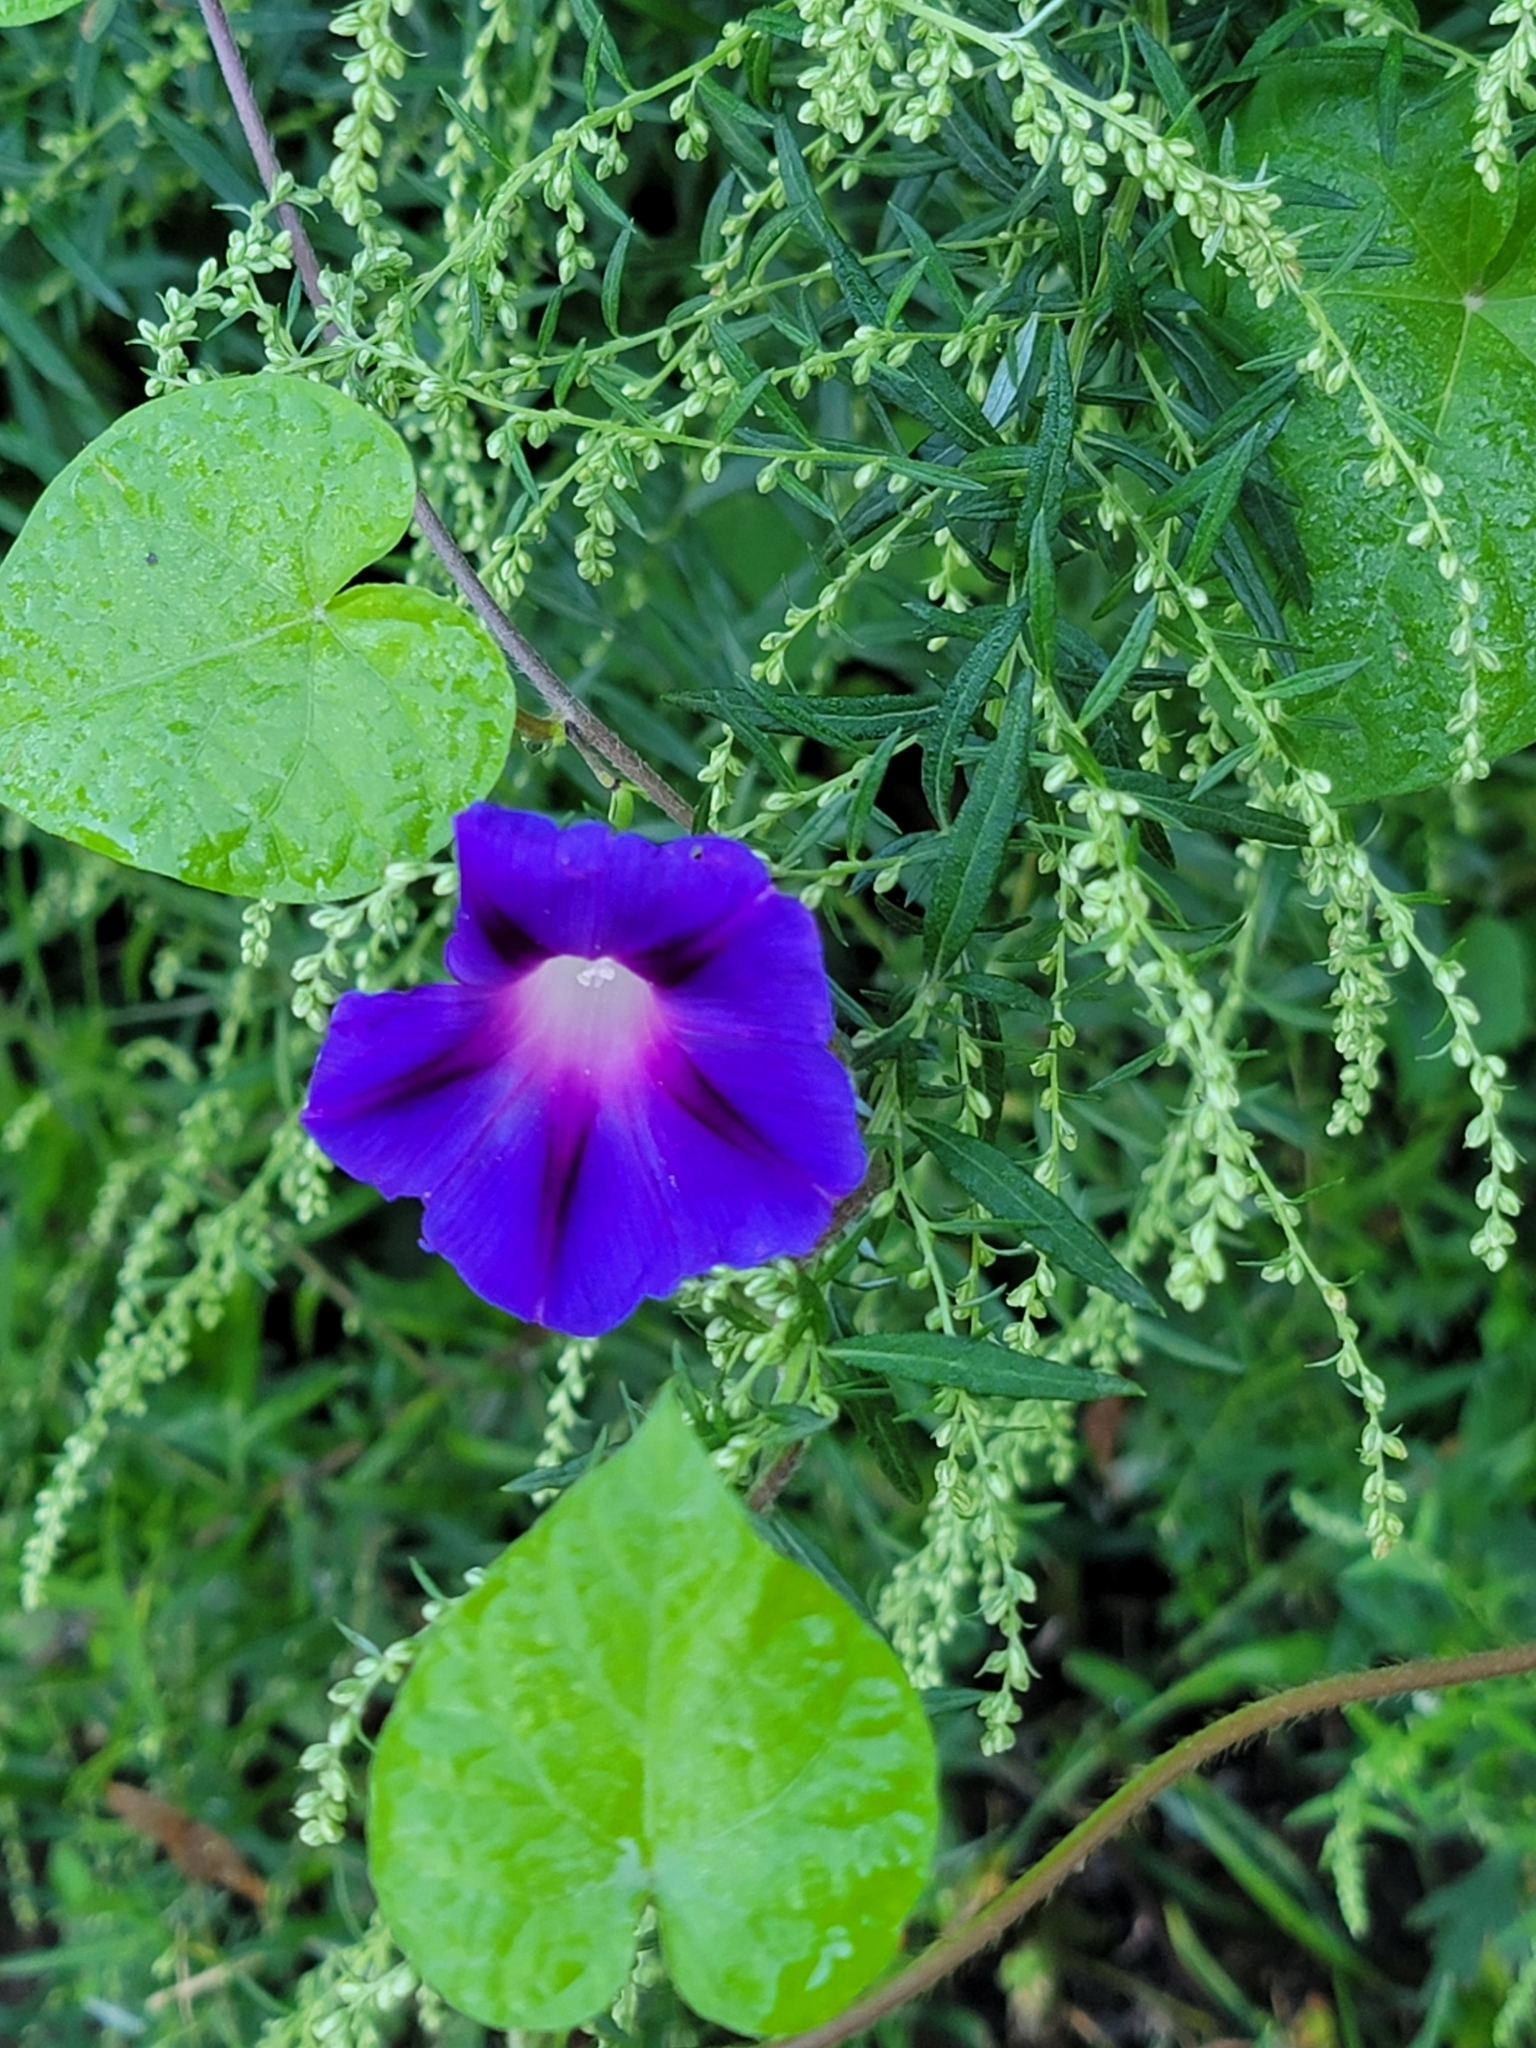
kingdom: Plantae
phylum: Tracheophyta
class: Magnoliopsida
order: Solanales
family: Convolvulaceae
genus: Ipomoea
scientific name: Ipomoea purpurea
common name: Common morning-glory
